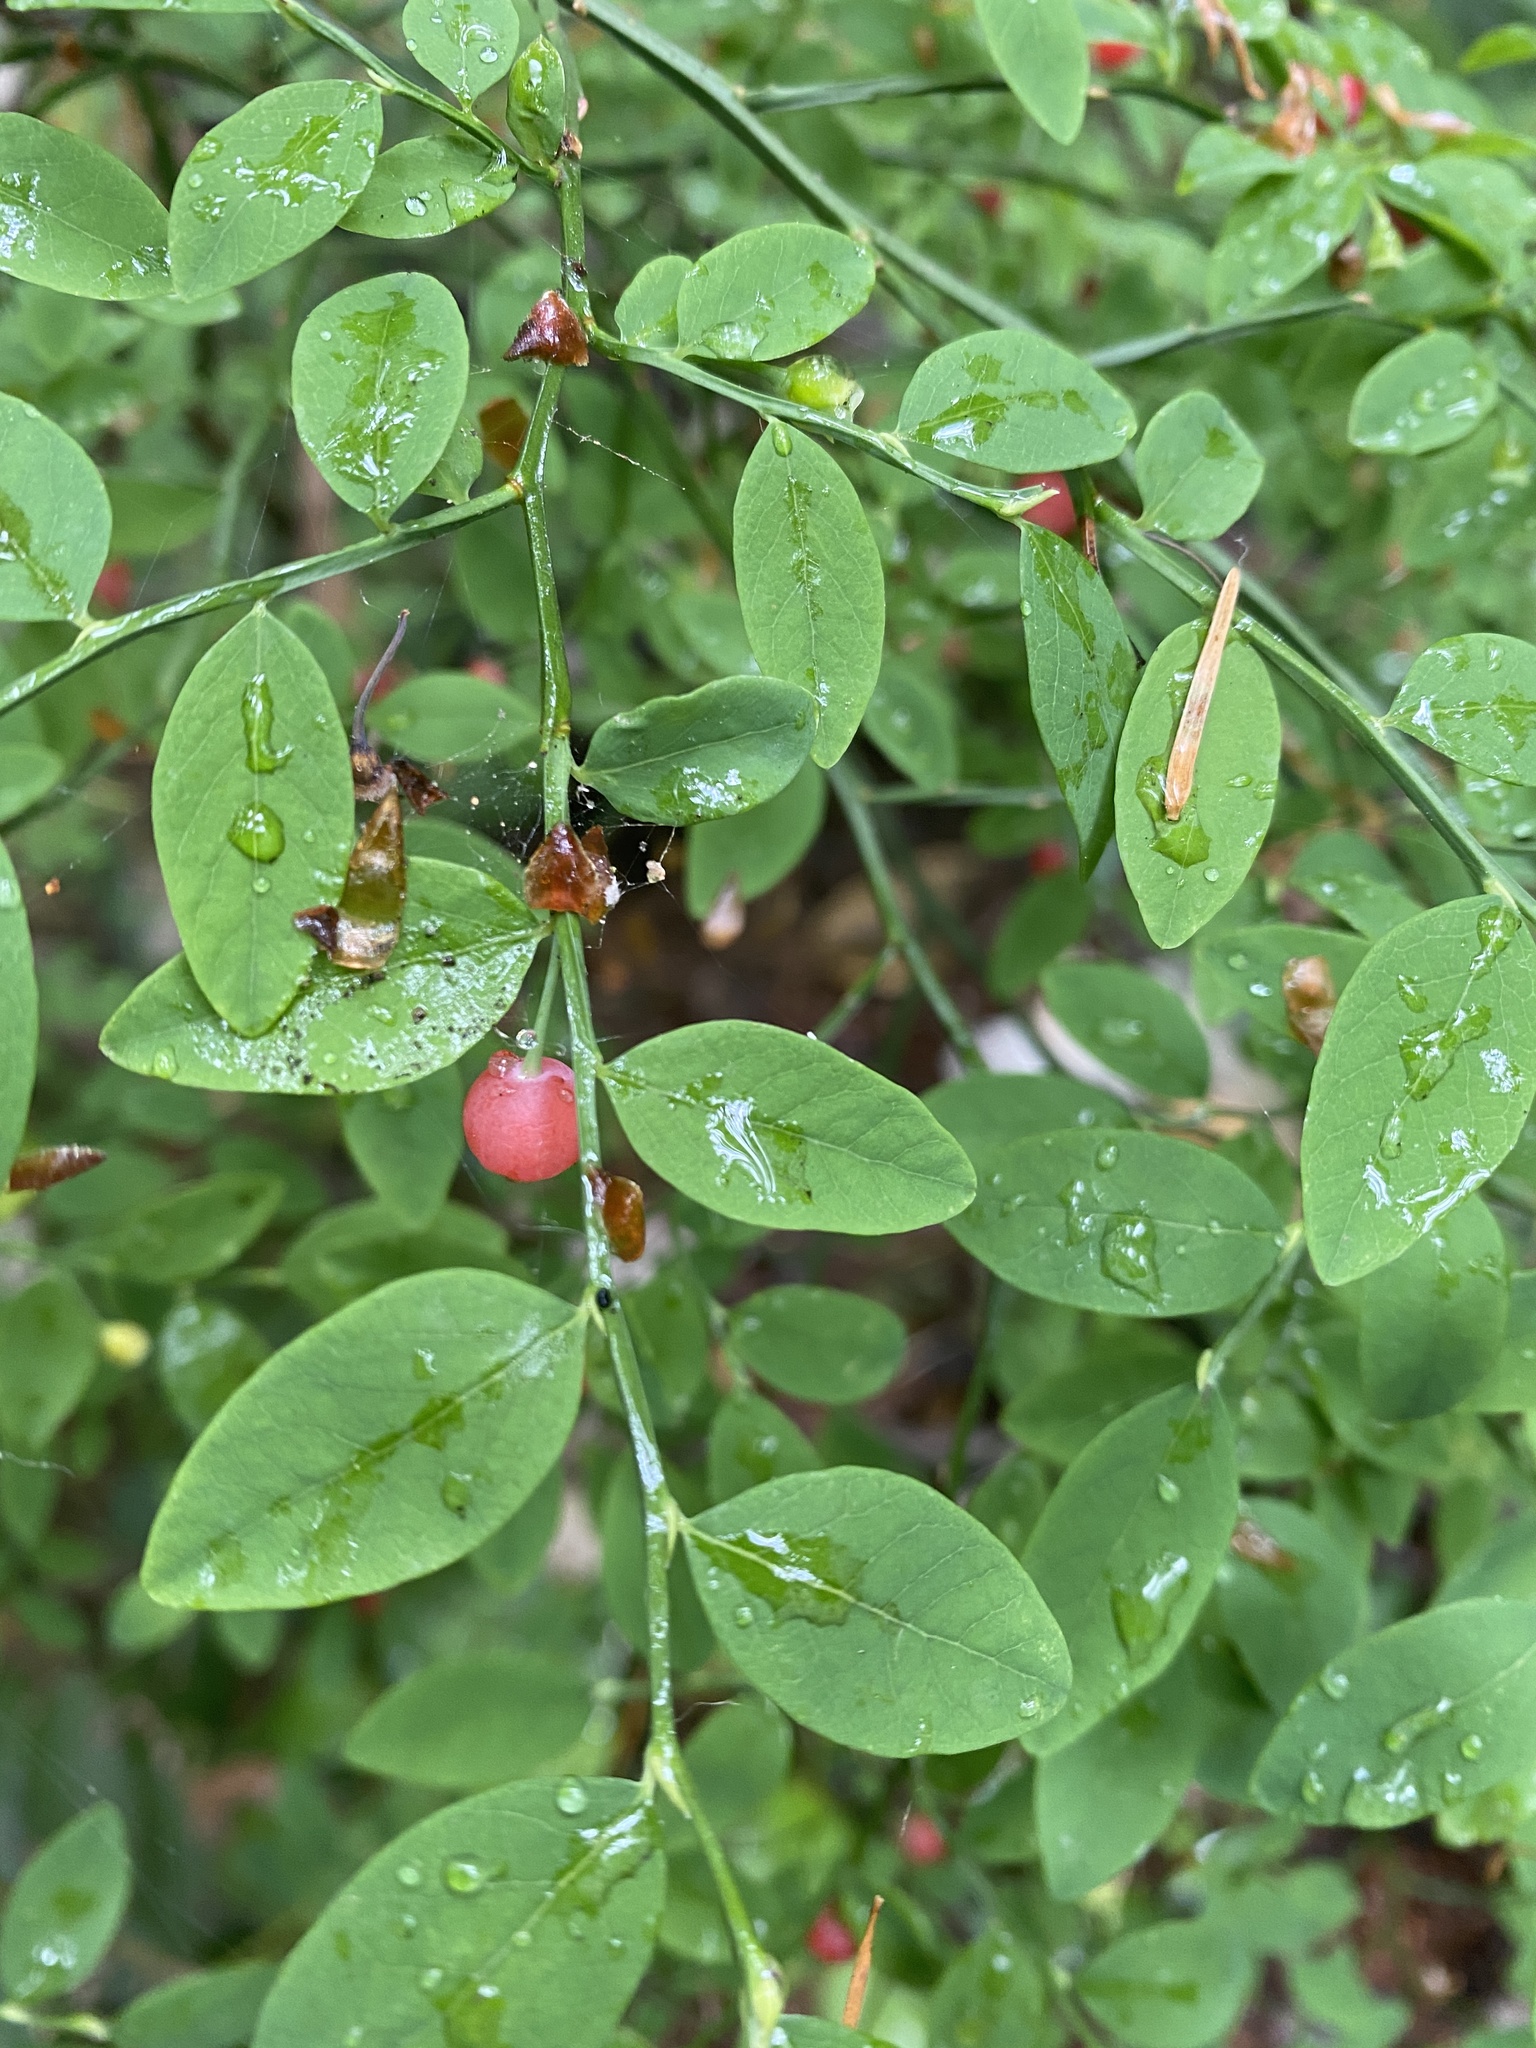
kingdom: Plantae
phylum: Tracheophyta
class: Magnoliopsida
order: Ericales
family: Ericaceae
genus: Vaccinium
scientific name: Vaccinium parvifolium
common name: Red-huckleberry
